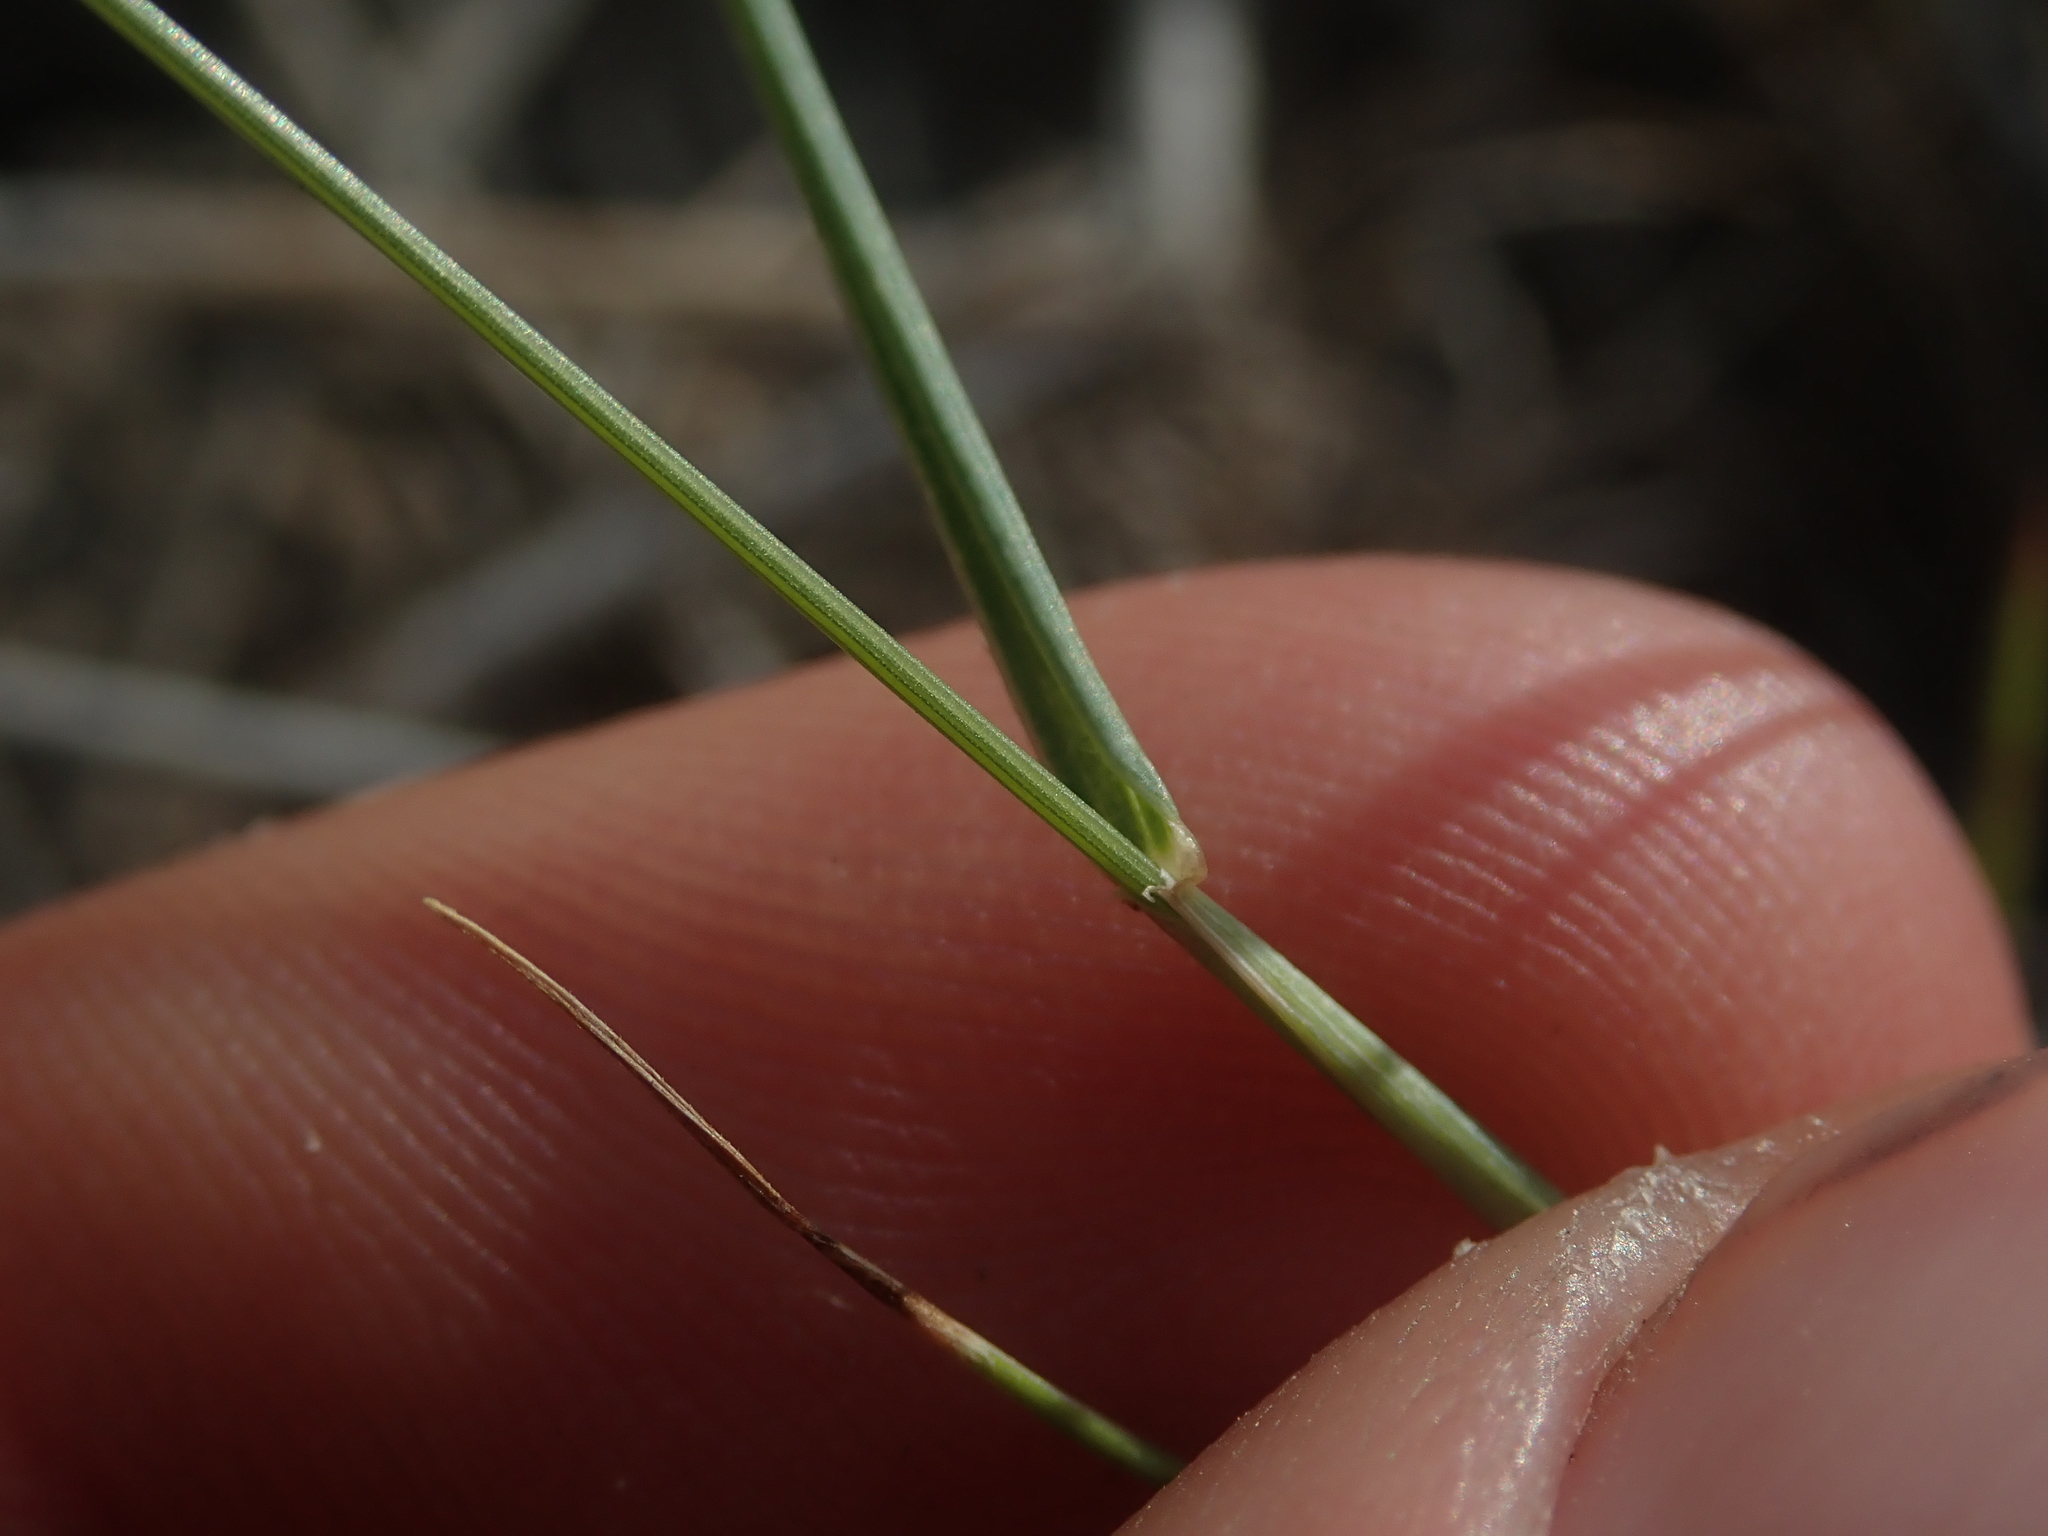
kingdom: Plantae
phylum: Tracheophyta
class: Liliopsida
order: Poales
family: Poaceae
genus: Taeniatherum
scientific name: Taeniatherum caput-medusae
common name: Medusahead
